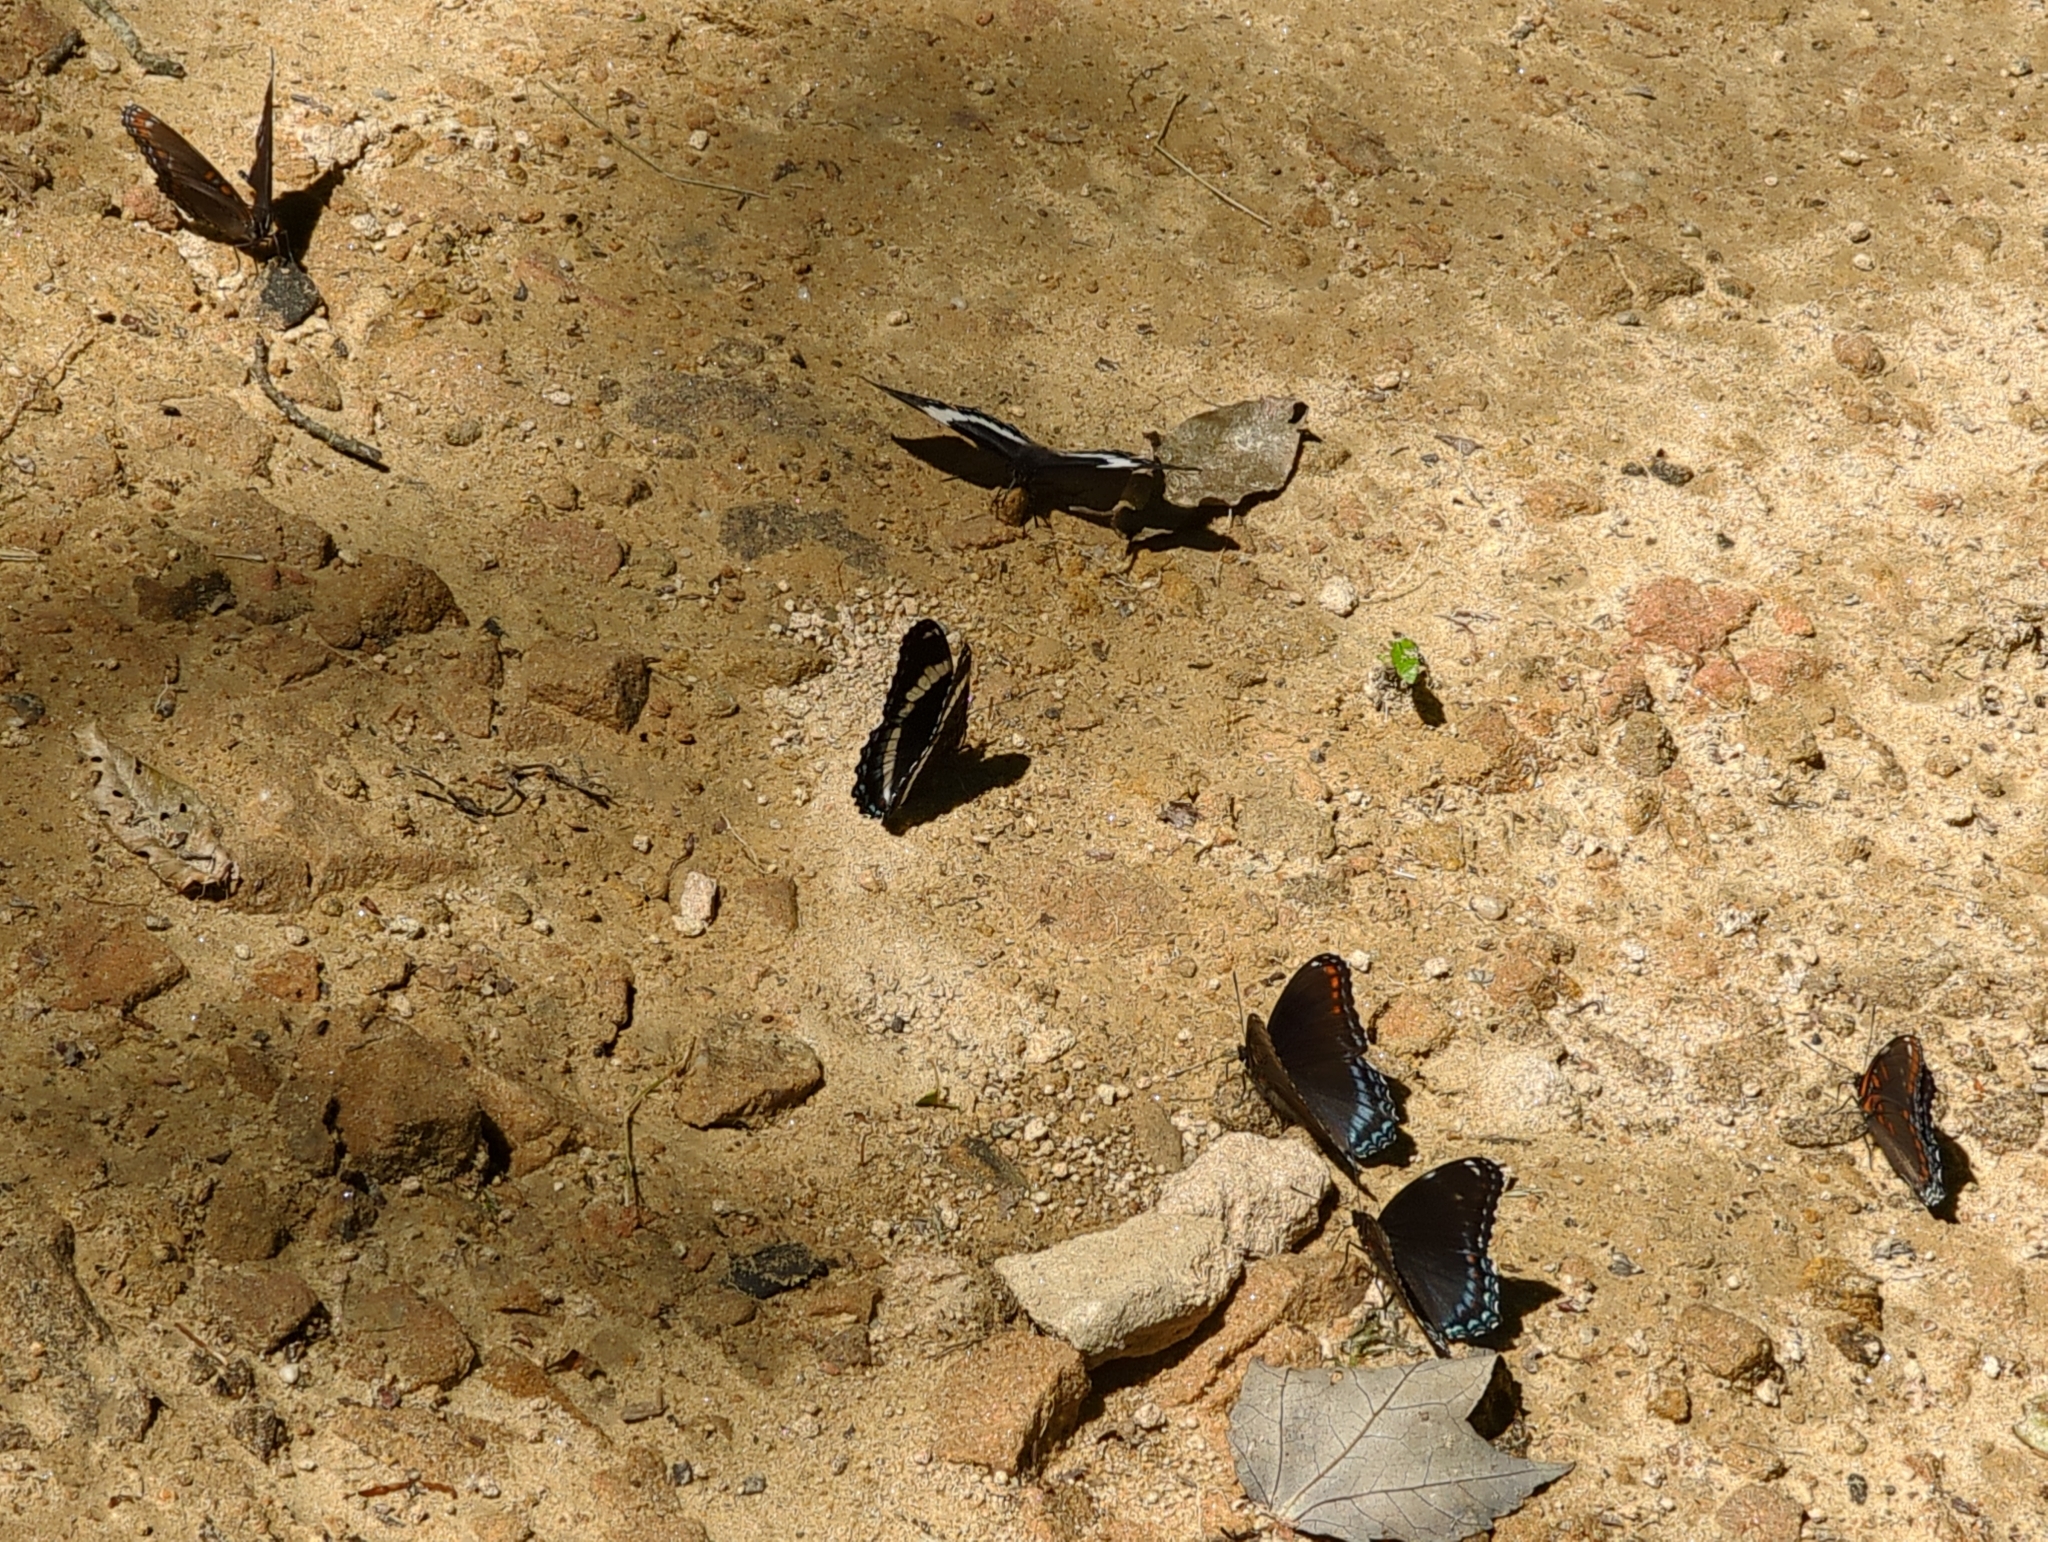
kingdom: Animalia
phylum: Arthropoda
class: Insecta
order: Lepidoptera
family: Nymphalidae
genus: Limenitis
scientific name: Limenitis arthemis
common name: Red-spotted admiral
